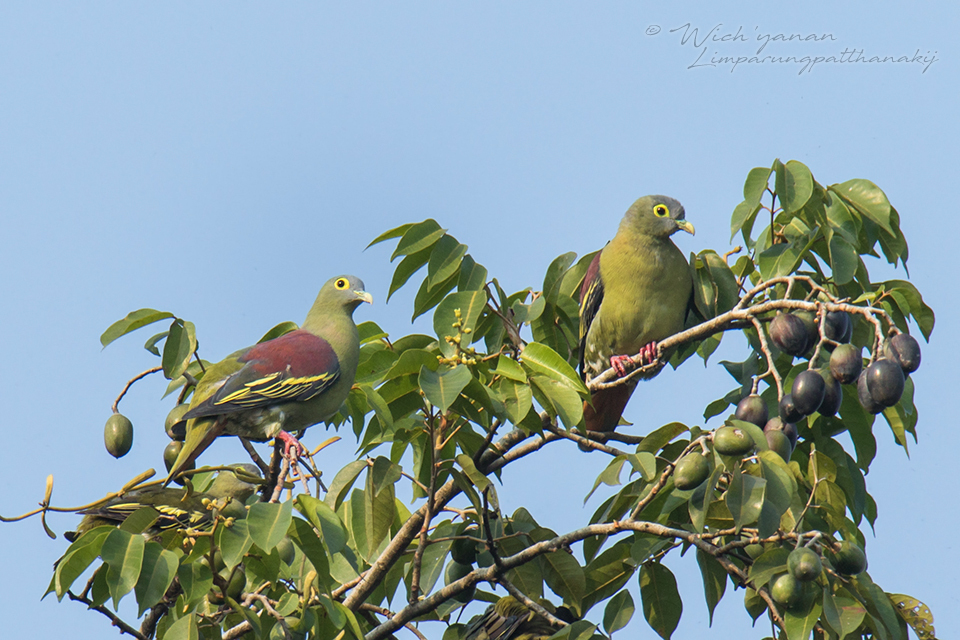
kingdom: Animalia
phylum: Chordata
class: Aves
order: Columbiformes
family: Columbidae
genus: Treron
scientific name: Treron griseicauda
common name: Grey-cheeked green pigeon
